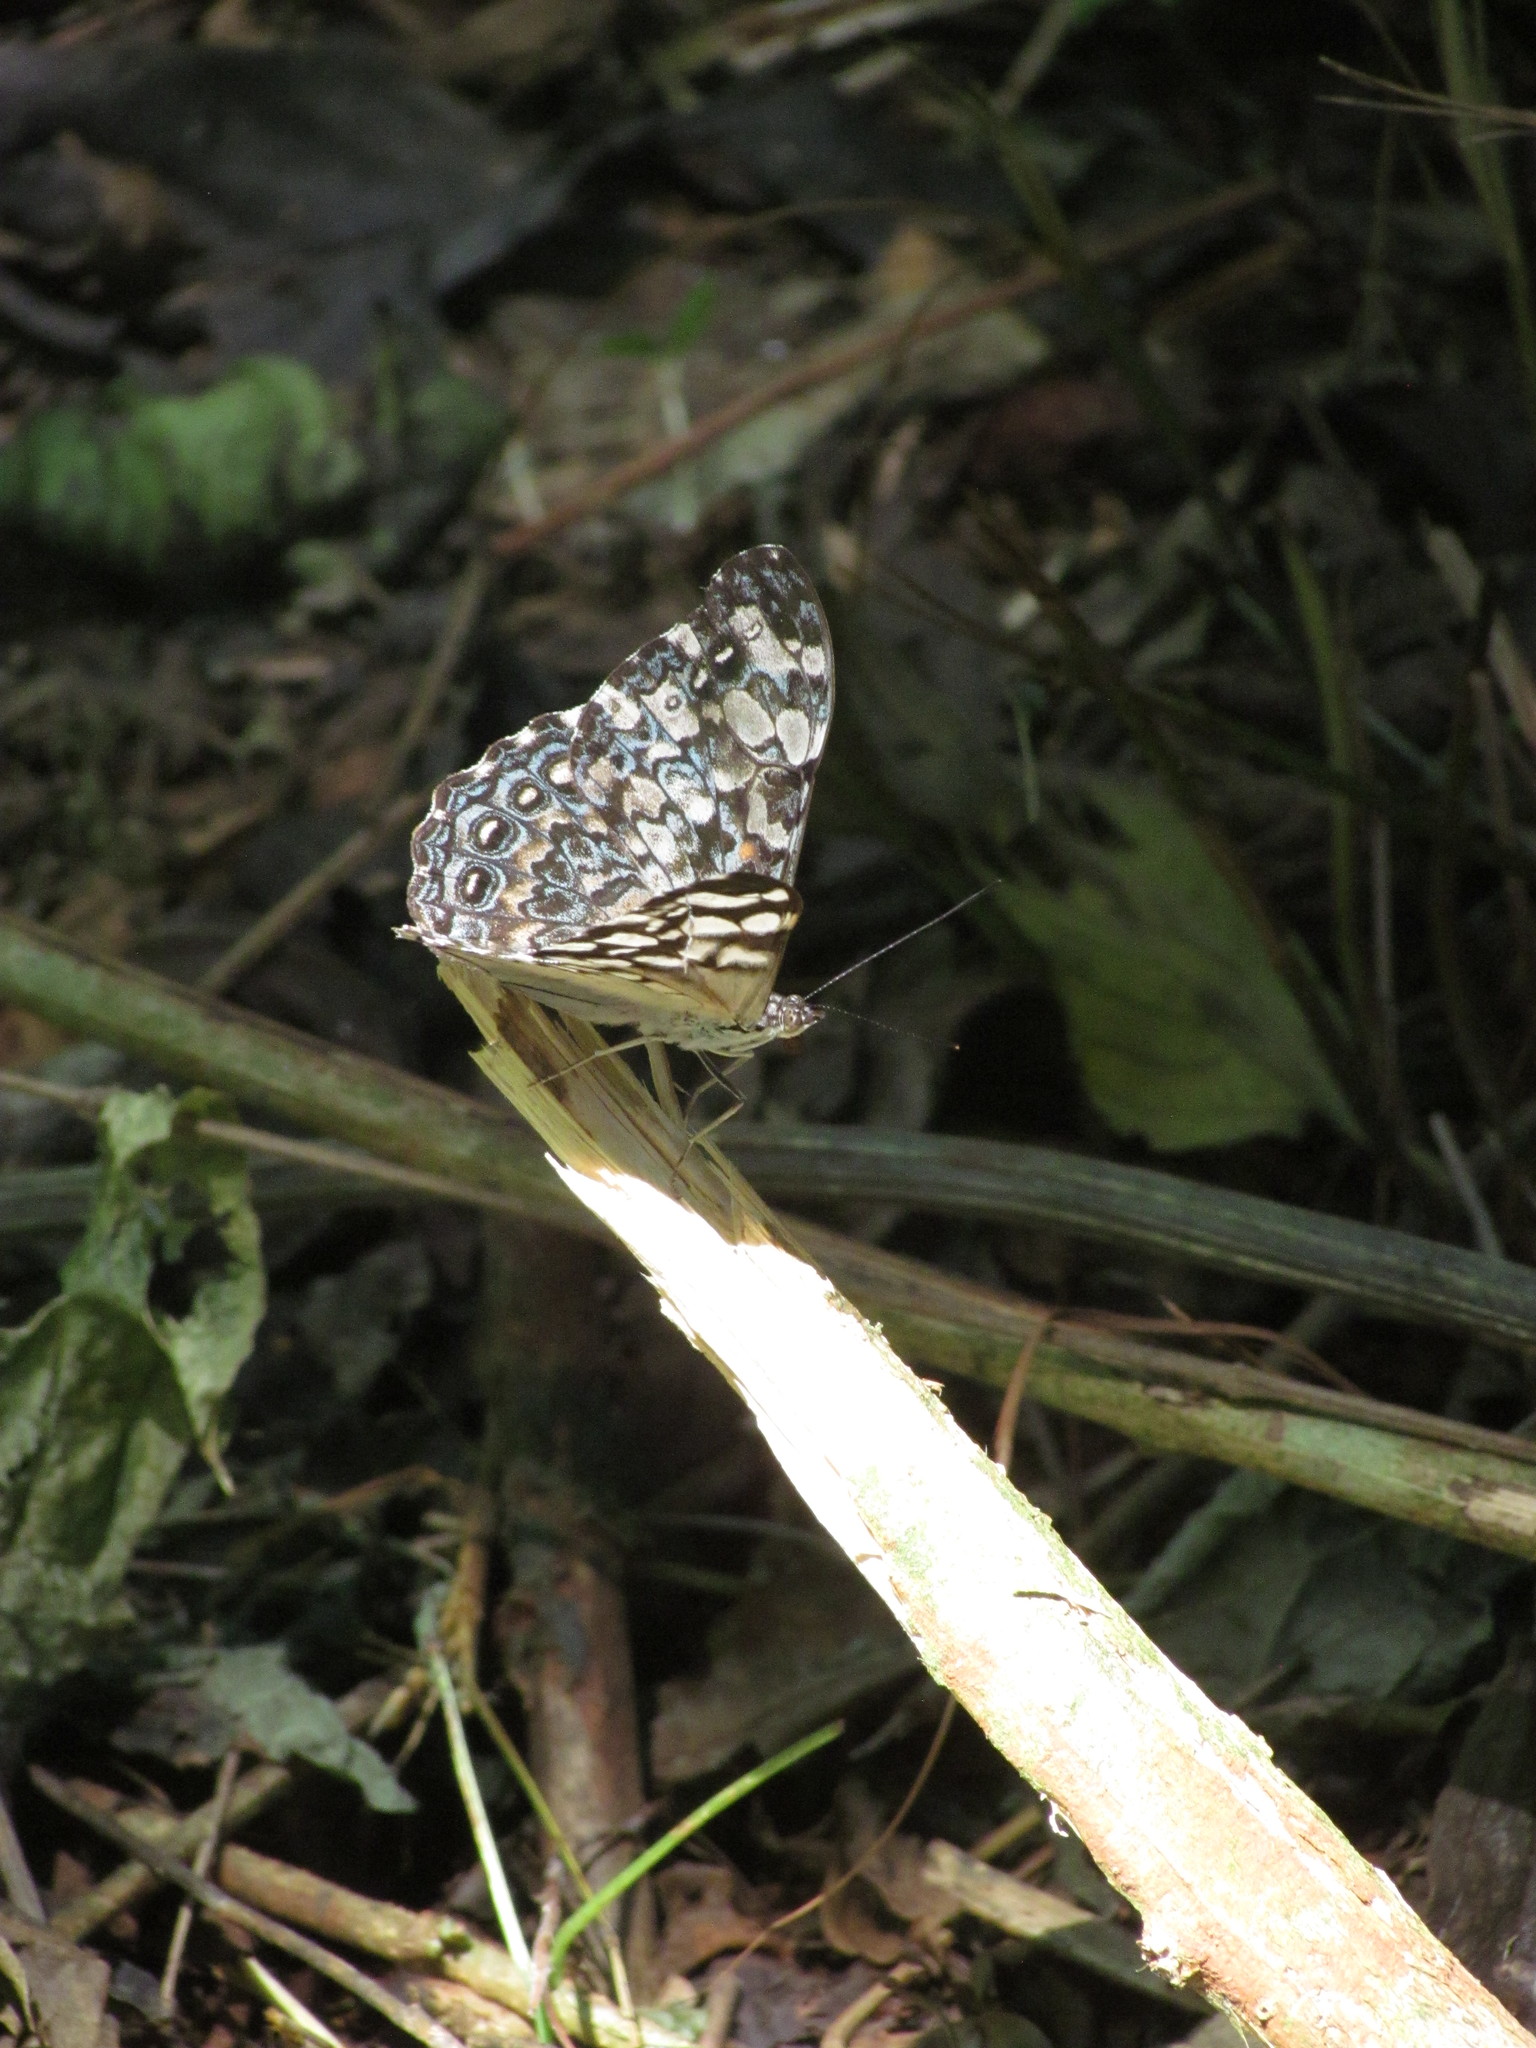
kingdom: Animalia
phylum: Arthropoda
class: Insecta
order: Lepidoptera
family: Nymphalidae
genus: Hamadryas
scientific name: Hamadryas epinome
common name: Epinome cracker
